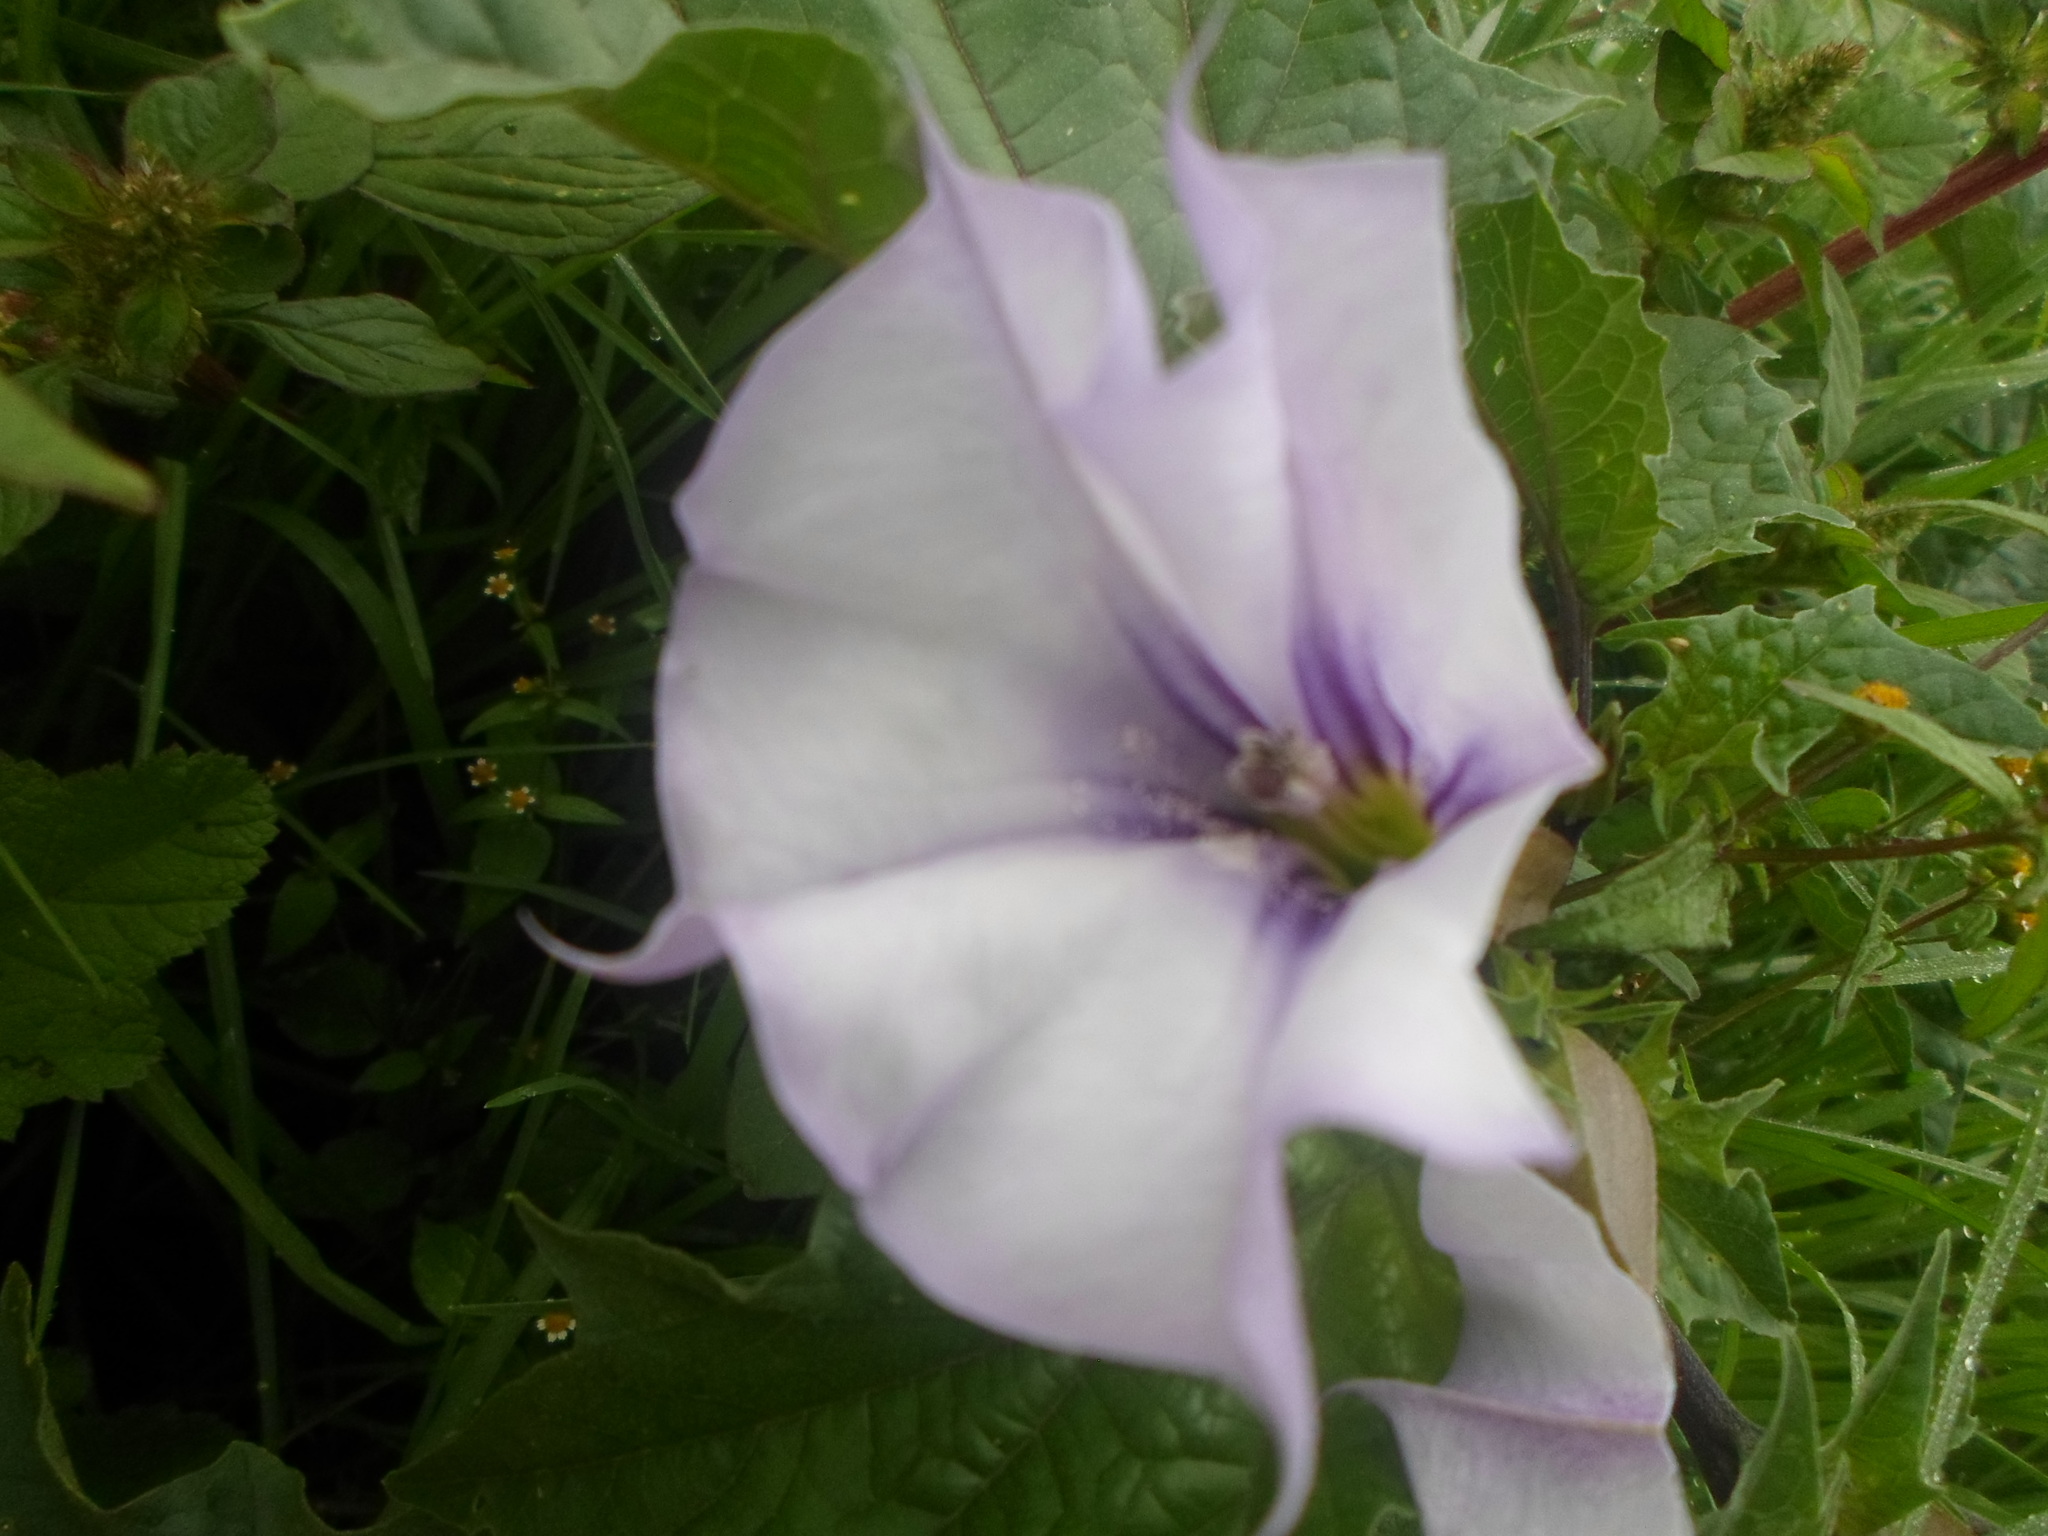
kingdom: Plantae
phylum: Tracheophyta
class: Magnoliopsida
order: Solanales
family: Solanaceae
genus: Datura
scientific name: Datura stramonium
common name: Thorn-apple
